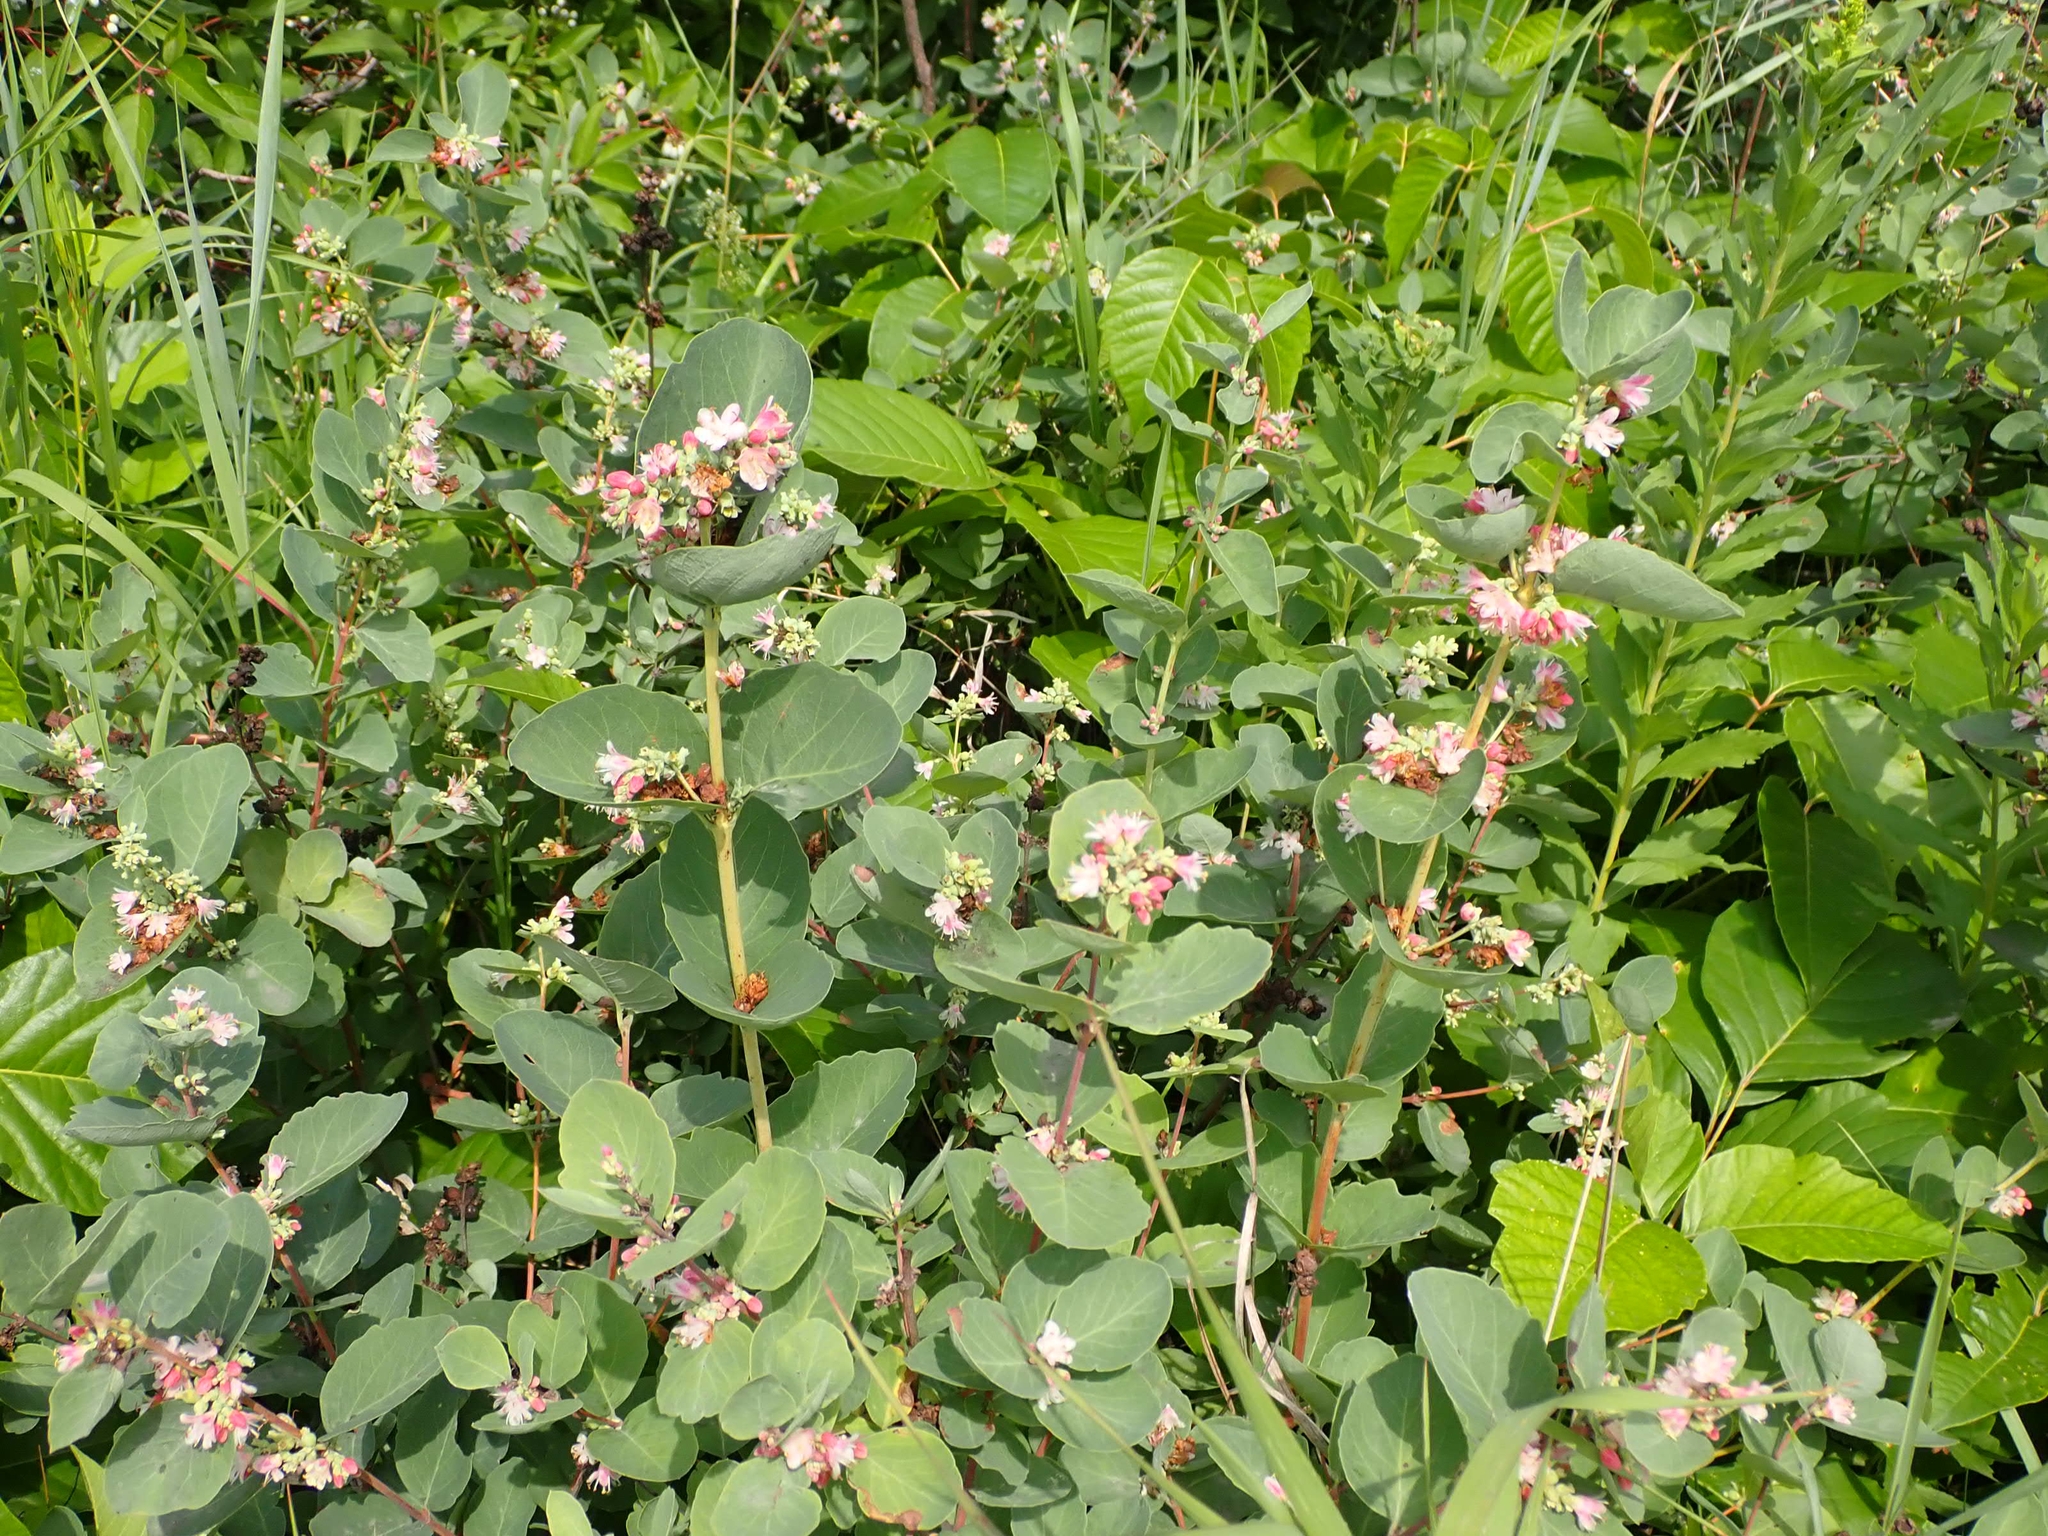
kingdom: Plantae
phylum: Tracheophyta
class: Magnoliopsida
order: Dipsacales
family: Caprifoliaceae
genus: Symphoricarpos
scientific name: Symphoricarpos occidentalis
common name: Wolfberry
